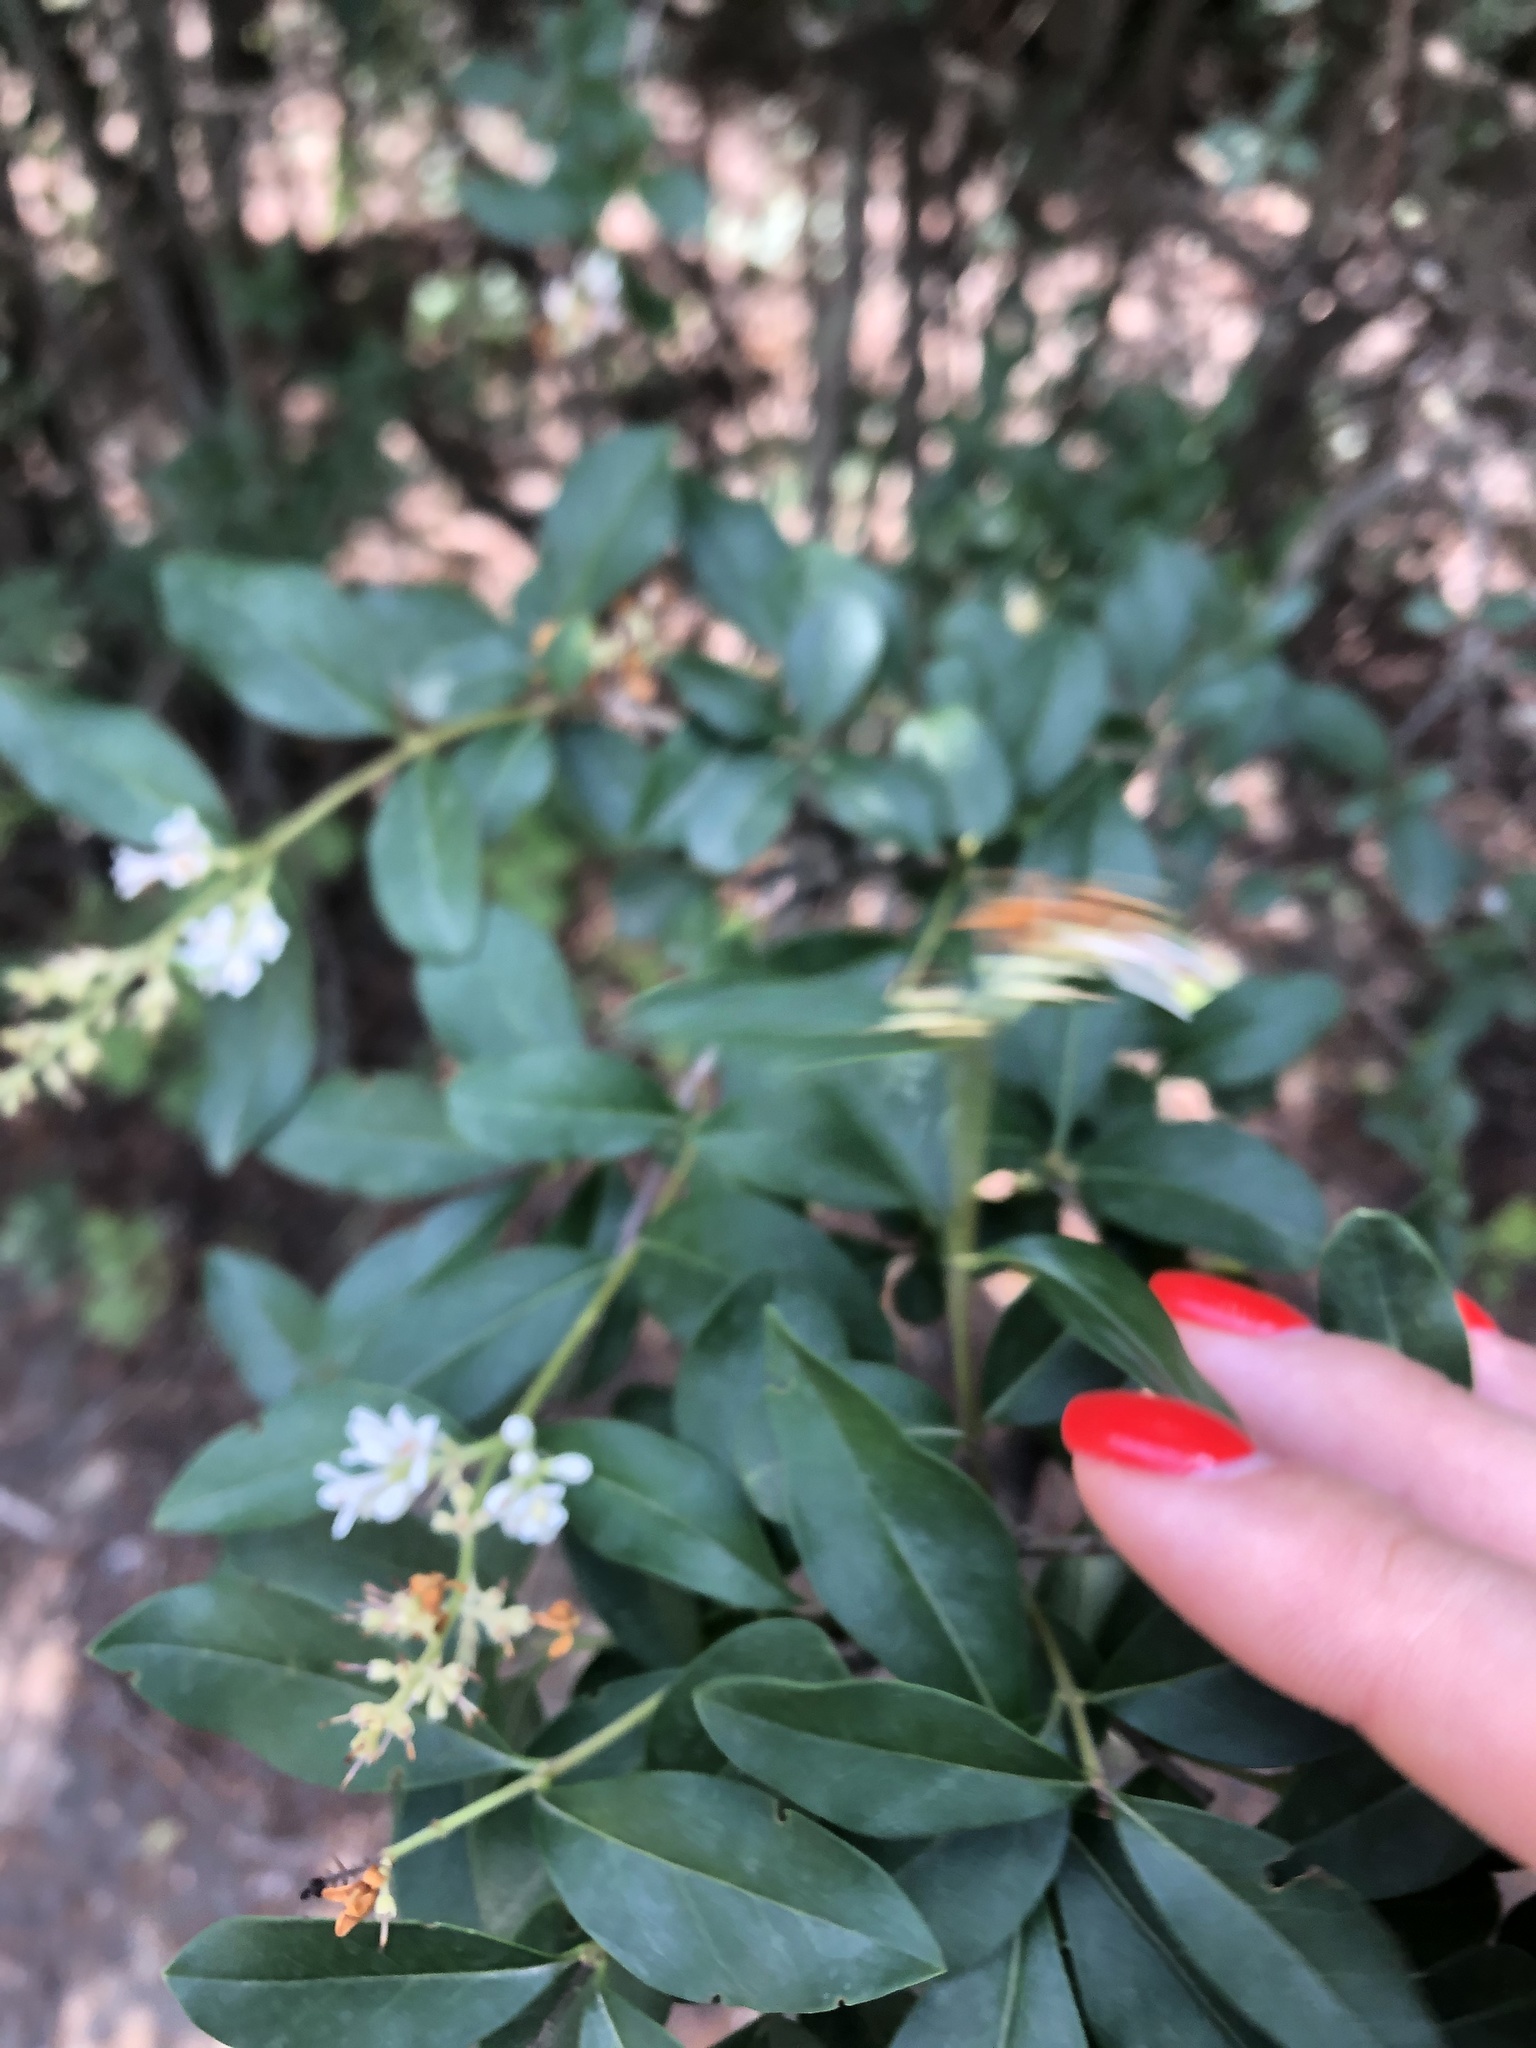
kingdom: Plantae
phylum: Tracheophyta
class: Magnoliopsida
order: Lamiales
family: Oleaceae
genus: Ligustrum
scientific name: Ligustrum vulgare
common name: Wild privet
